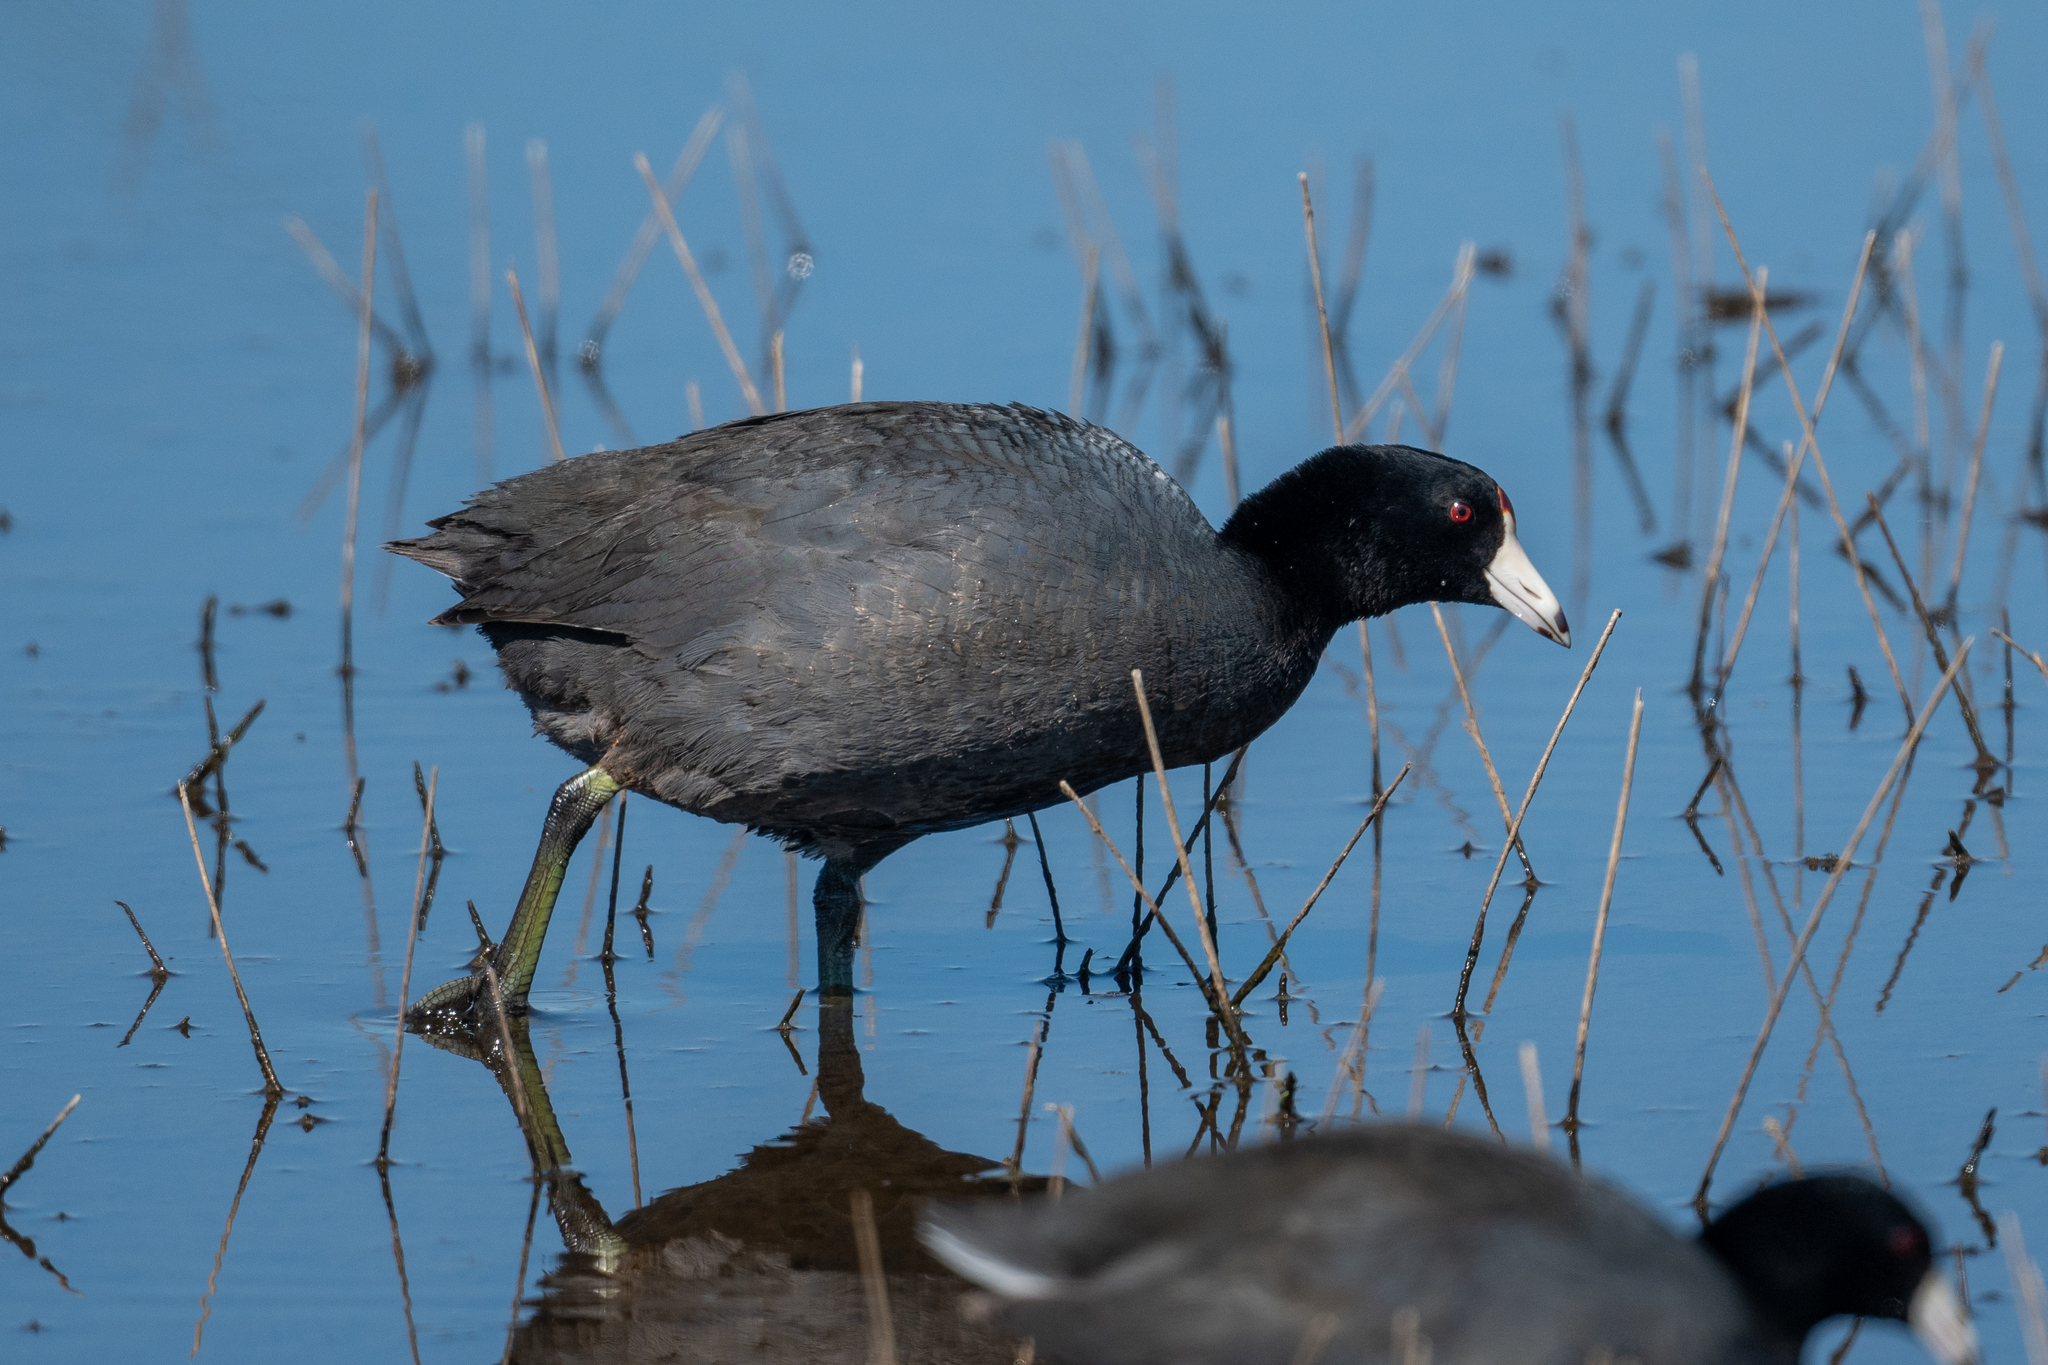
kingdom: Animalia
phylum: Chordata
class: Aves
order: Gruiformes
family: Rallidae
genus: Fulica
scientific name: Fulica americana
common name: American coot
